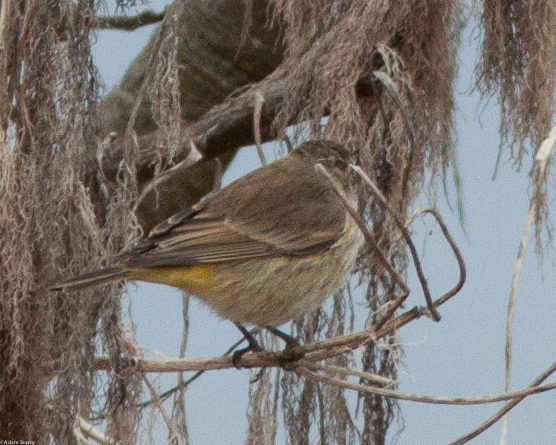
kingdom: Animalia
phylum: Chordata
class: Aves
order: Passeriformes
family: Parulidae
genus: Setophaga
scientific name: Setophaga palmarum
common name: Palm warbler
